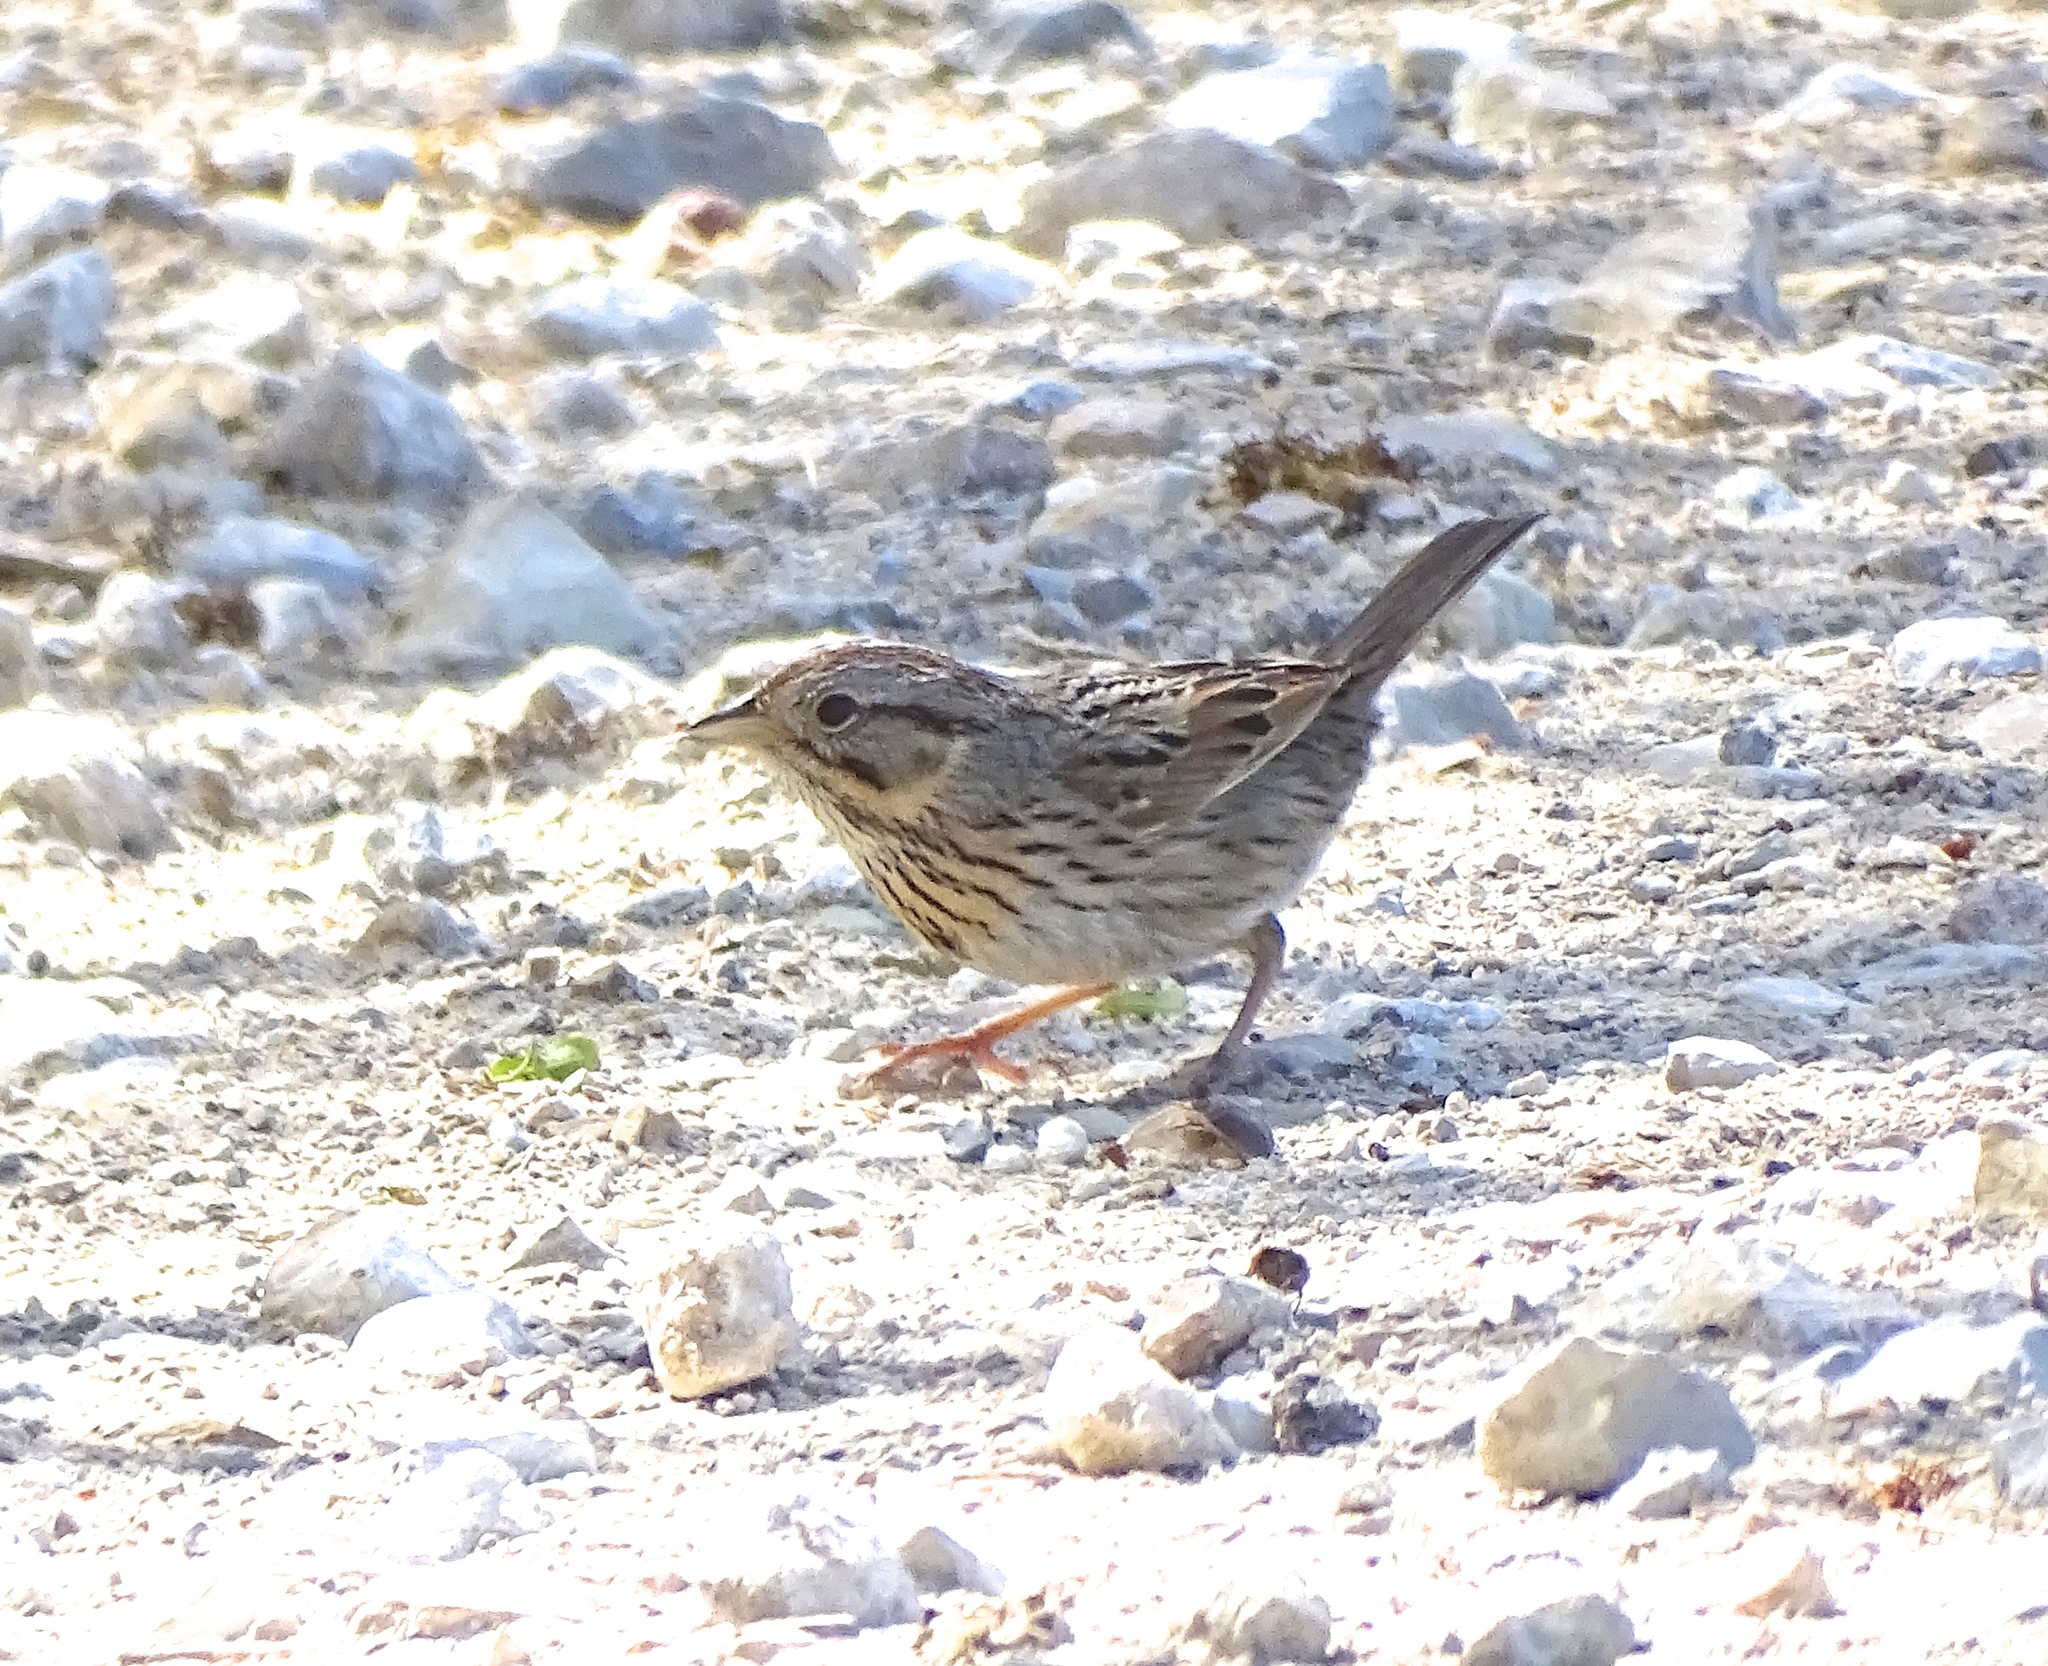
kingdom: Animalia
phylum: Chordata
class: Aves
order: Passeriformes
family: Passerellidae
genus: Melospiza
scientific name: Melospiza lincolnii
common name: Lincoln's sparrow
